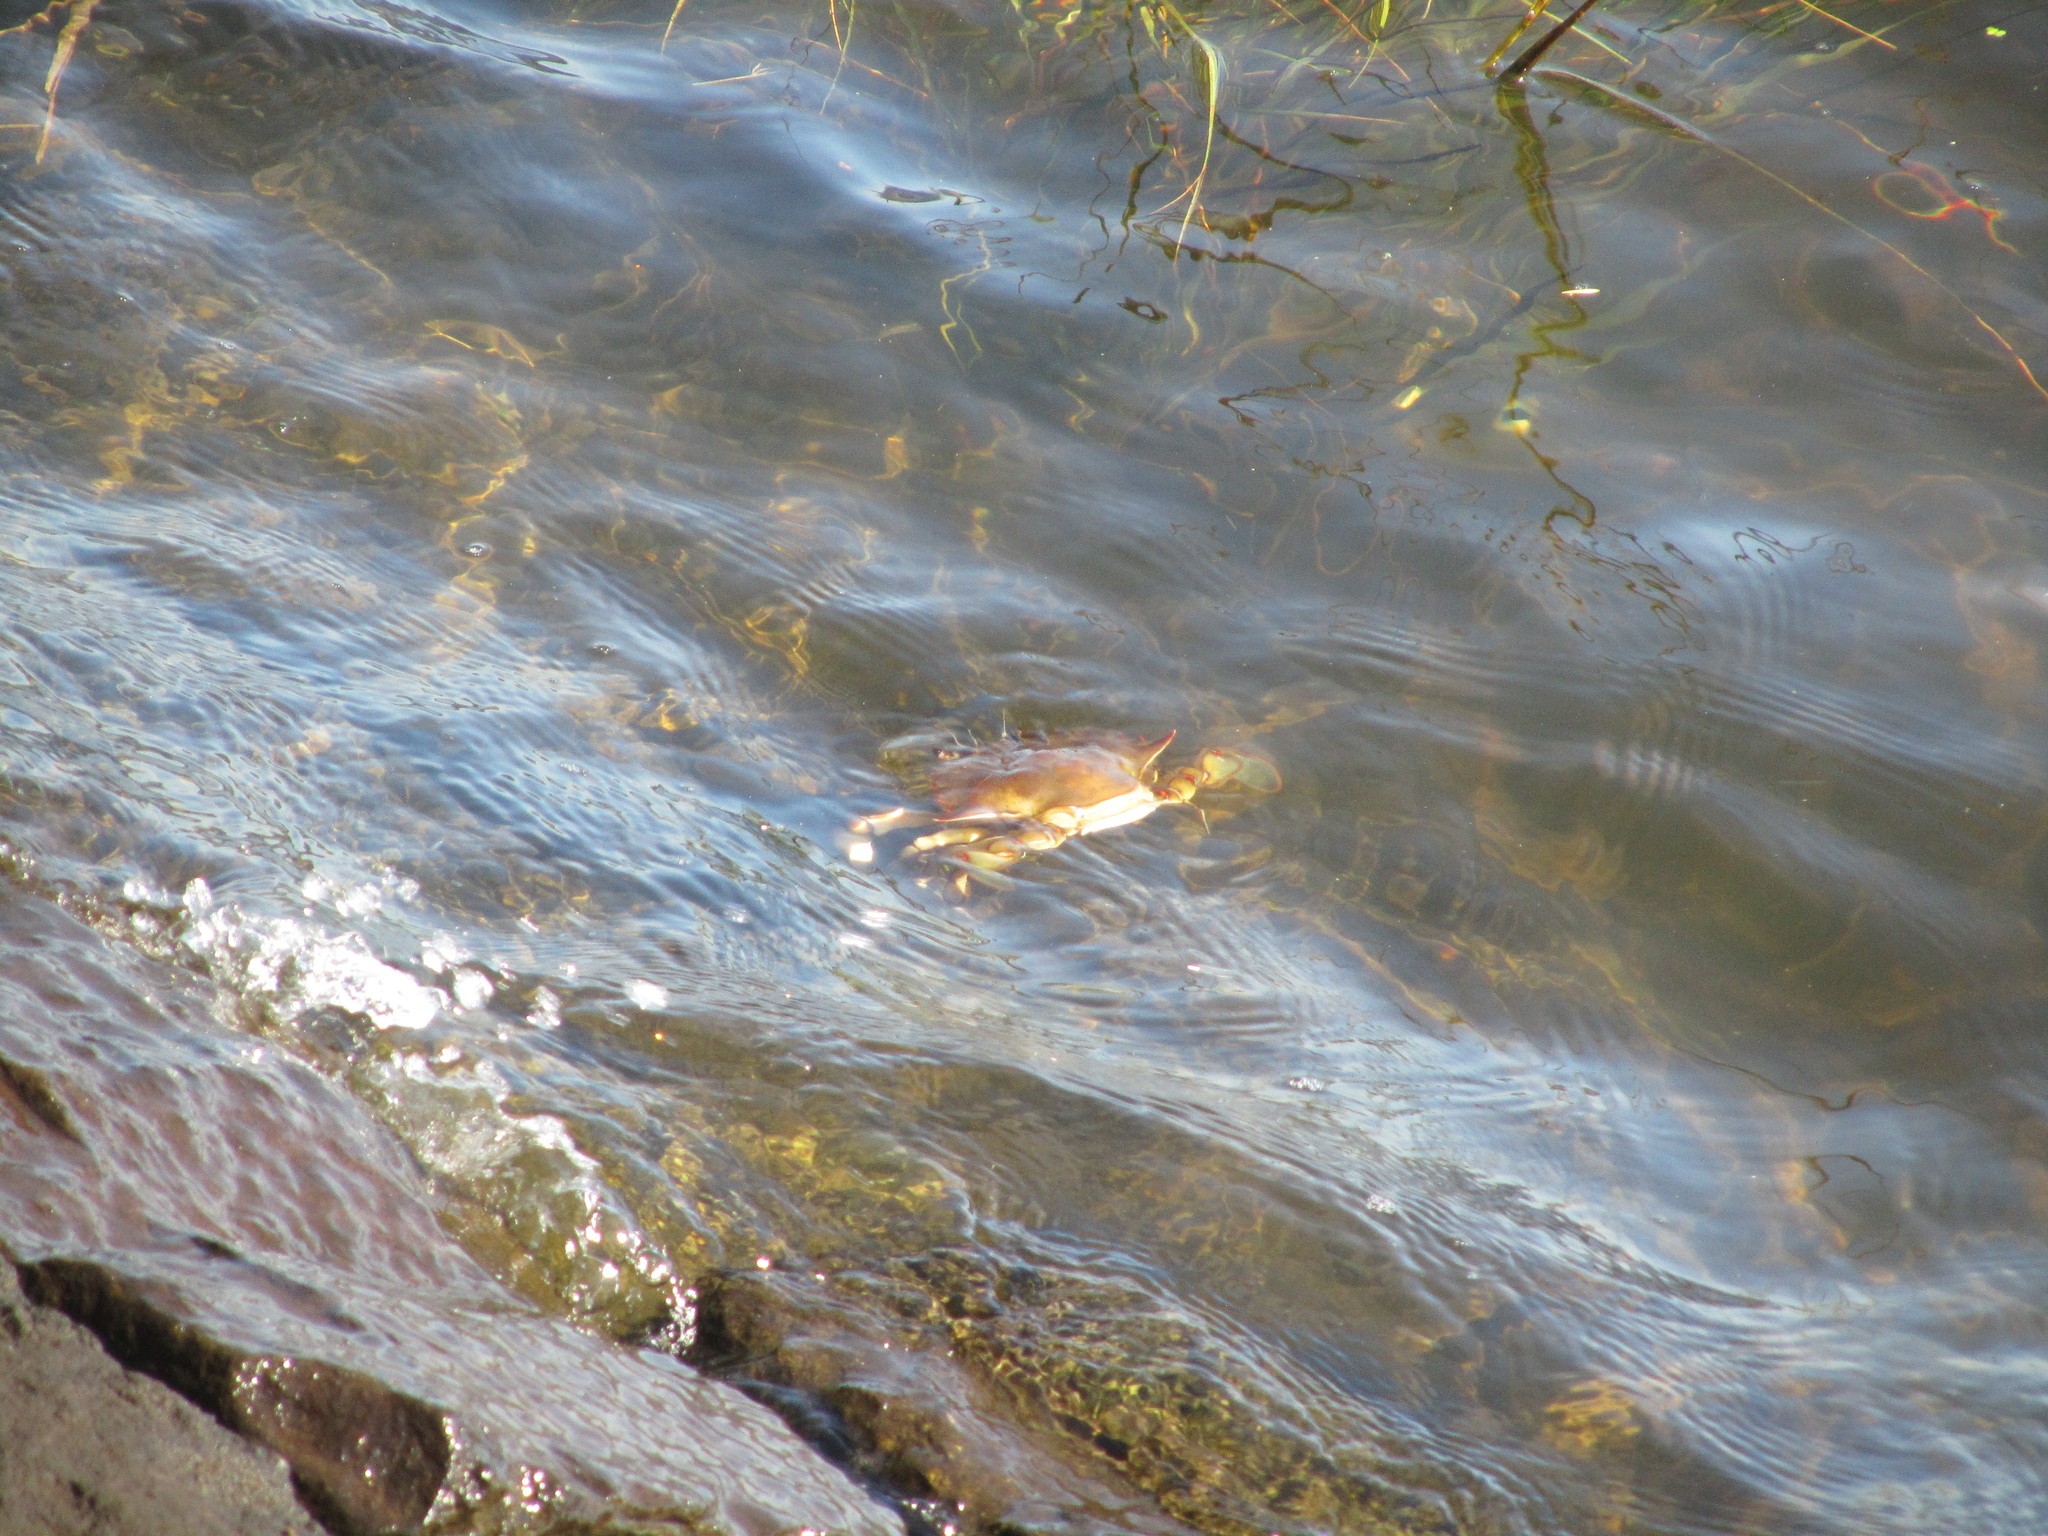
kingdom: Animalia
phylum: Arthropoda
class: Malacostraca
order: Decapoda
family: Portunidae
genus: Callinectes
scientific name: Callinectes sapidus
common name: Blue crab
